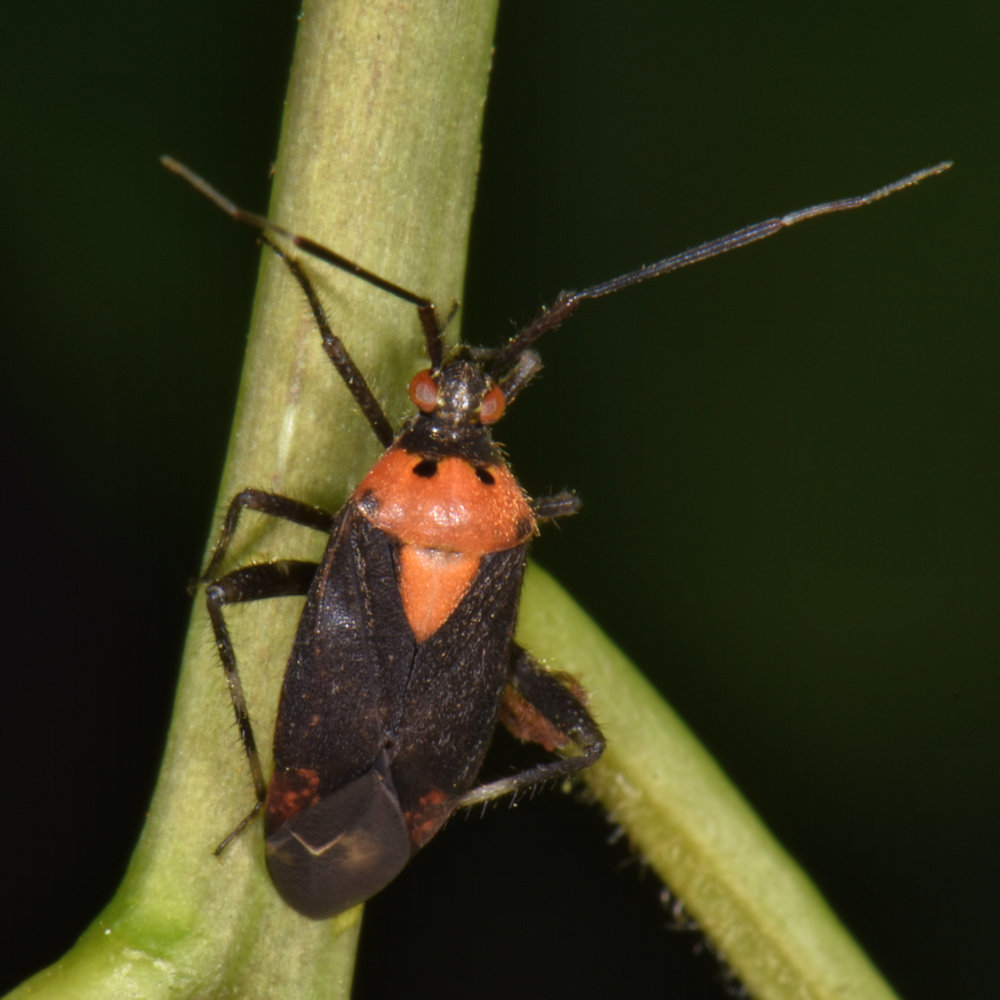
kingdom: Animalia
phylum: Arthropoda
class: Insecta
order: Hemiptera
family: Miridae
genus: Taedia
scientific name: Taedia scrupea
